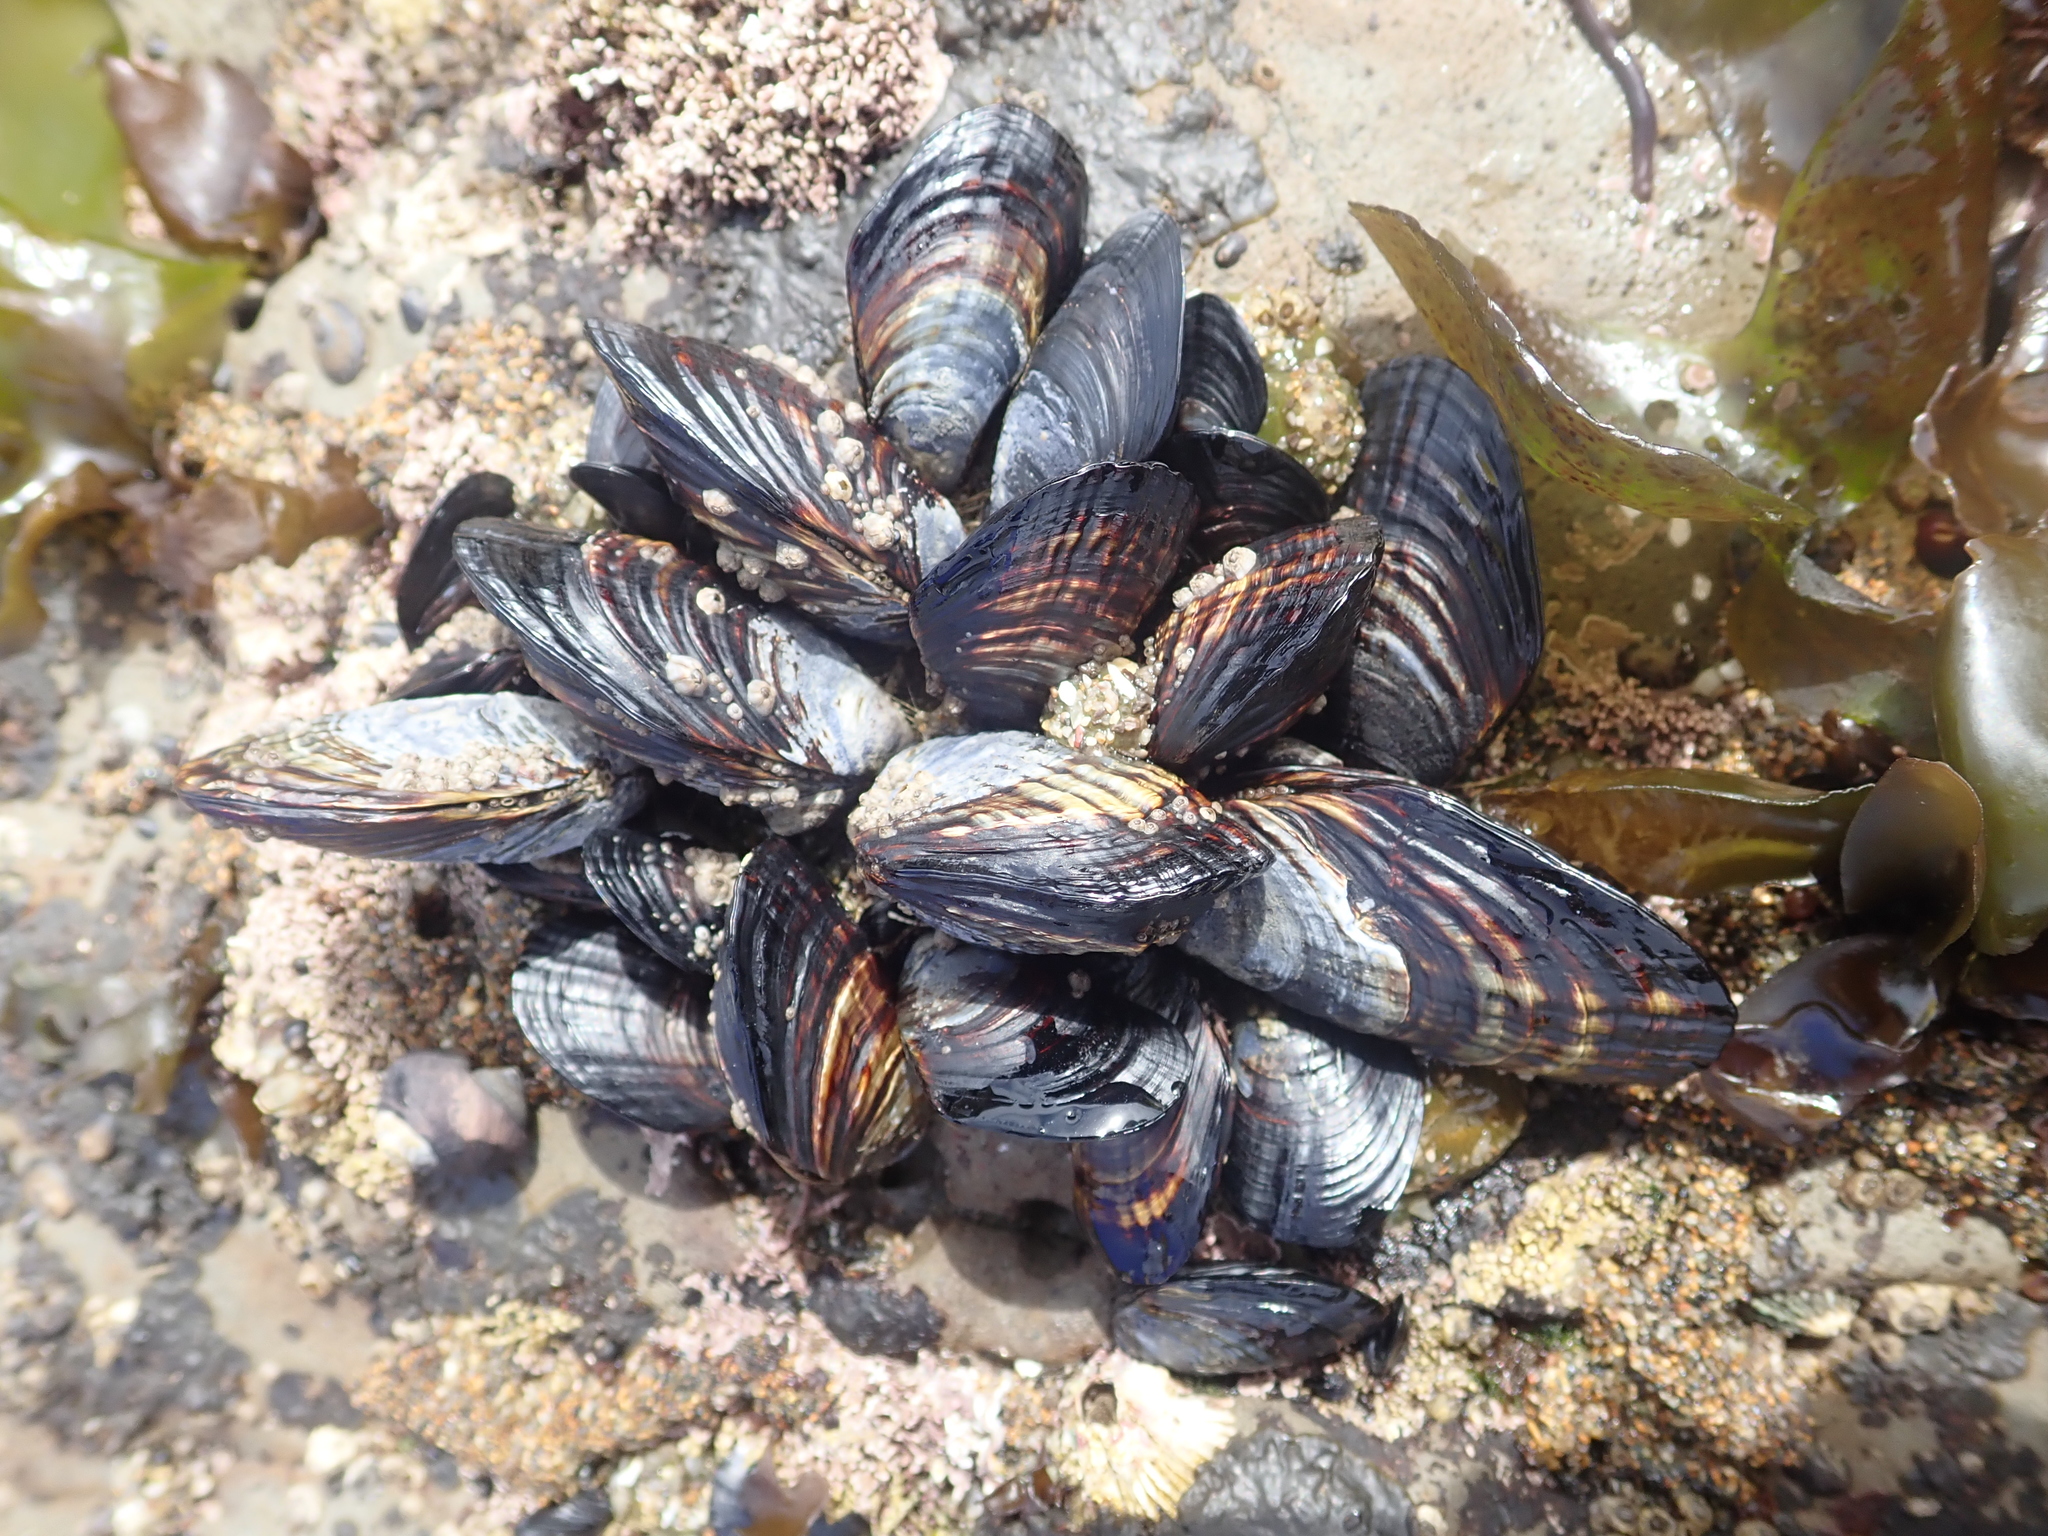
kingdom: Animalia
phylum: Mollusca
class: Bivalvia
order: Mytilida
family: Mytilidae
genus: Mytilus
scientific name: Mytilus californianus
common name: California mussel
